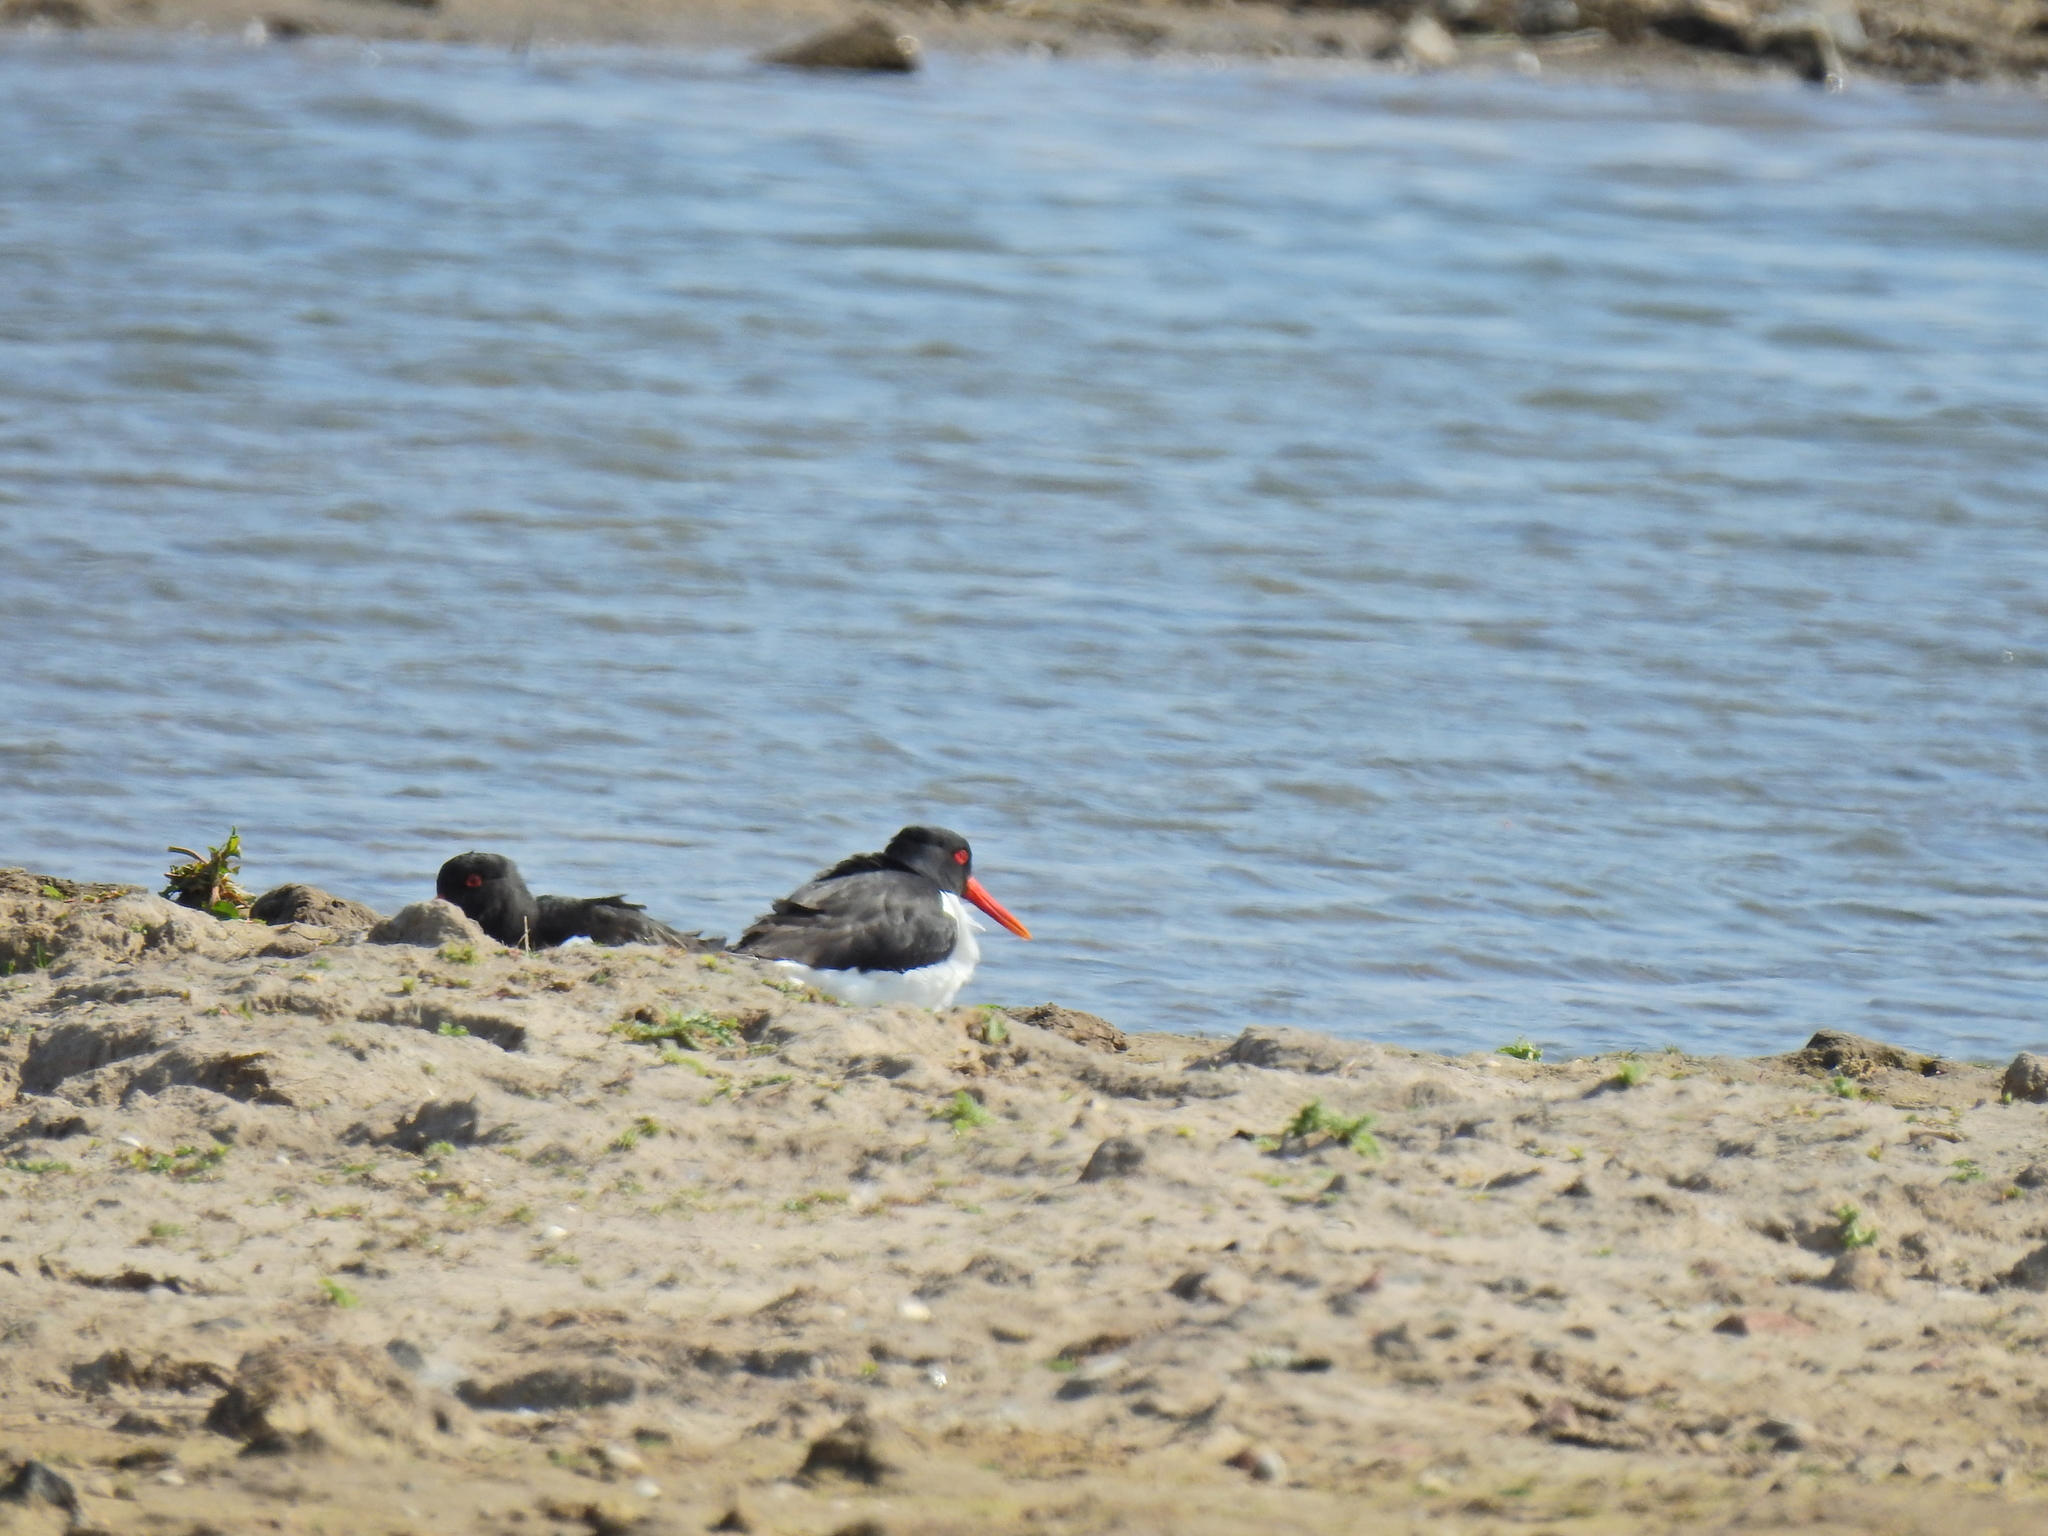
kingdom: Animalia
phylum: Chordata
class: Aves
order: Charadriiformes
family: Haematopodidae
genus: Haematopus
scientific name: Haematopus ostralegus
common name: Eurasian oystercatcher
